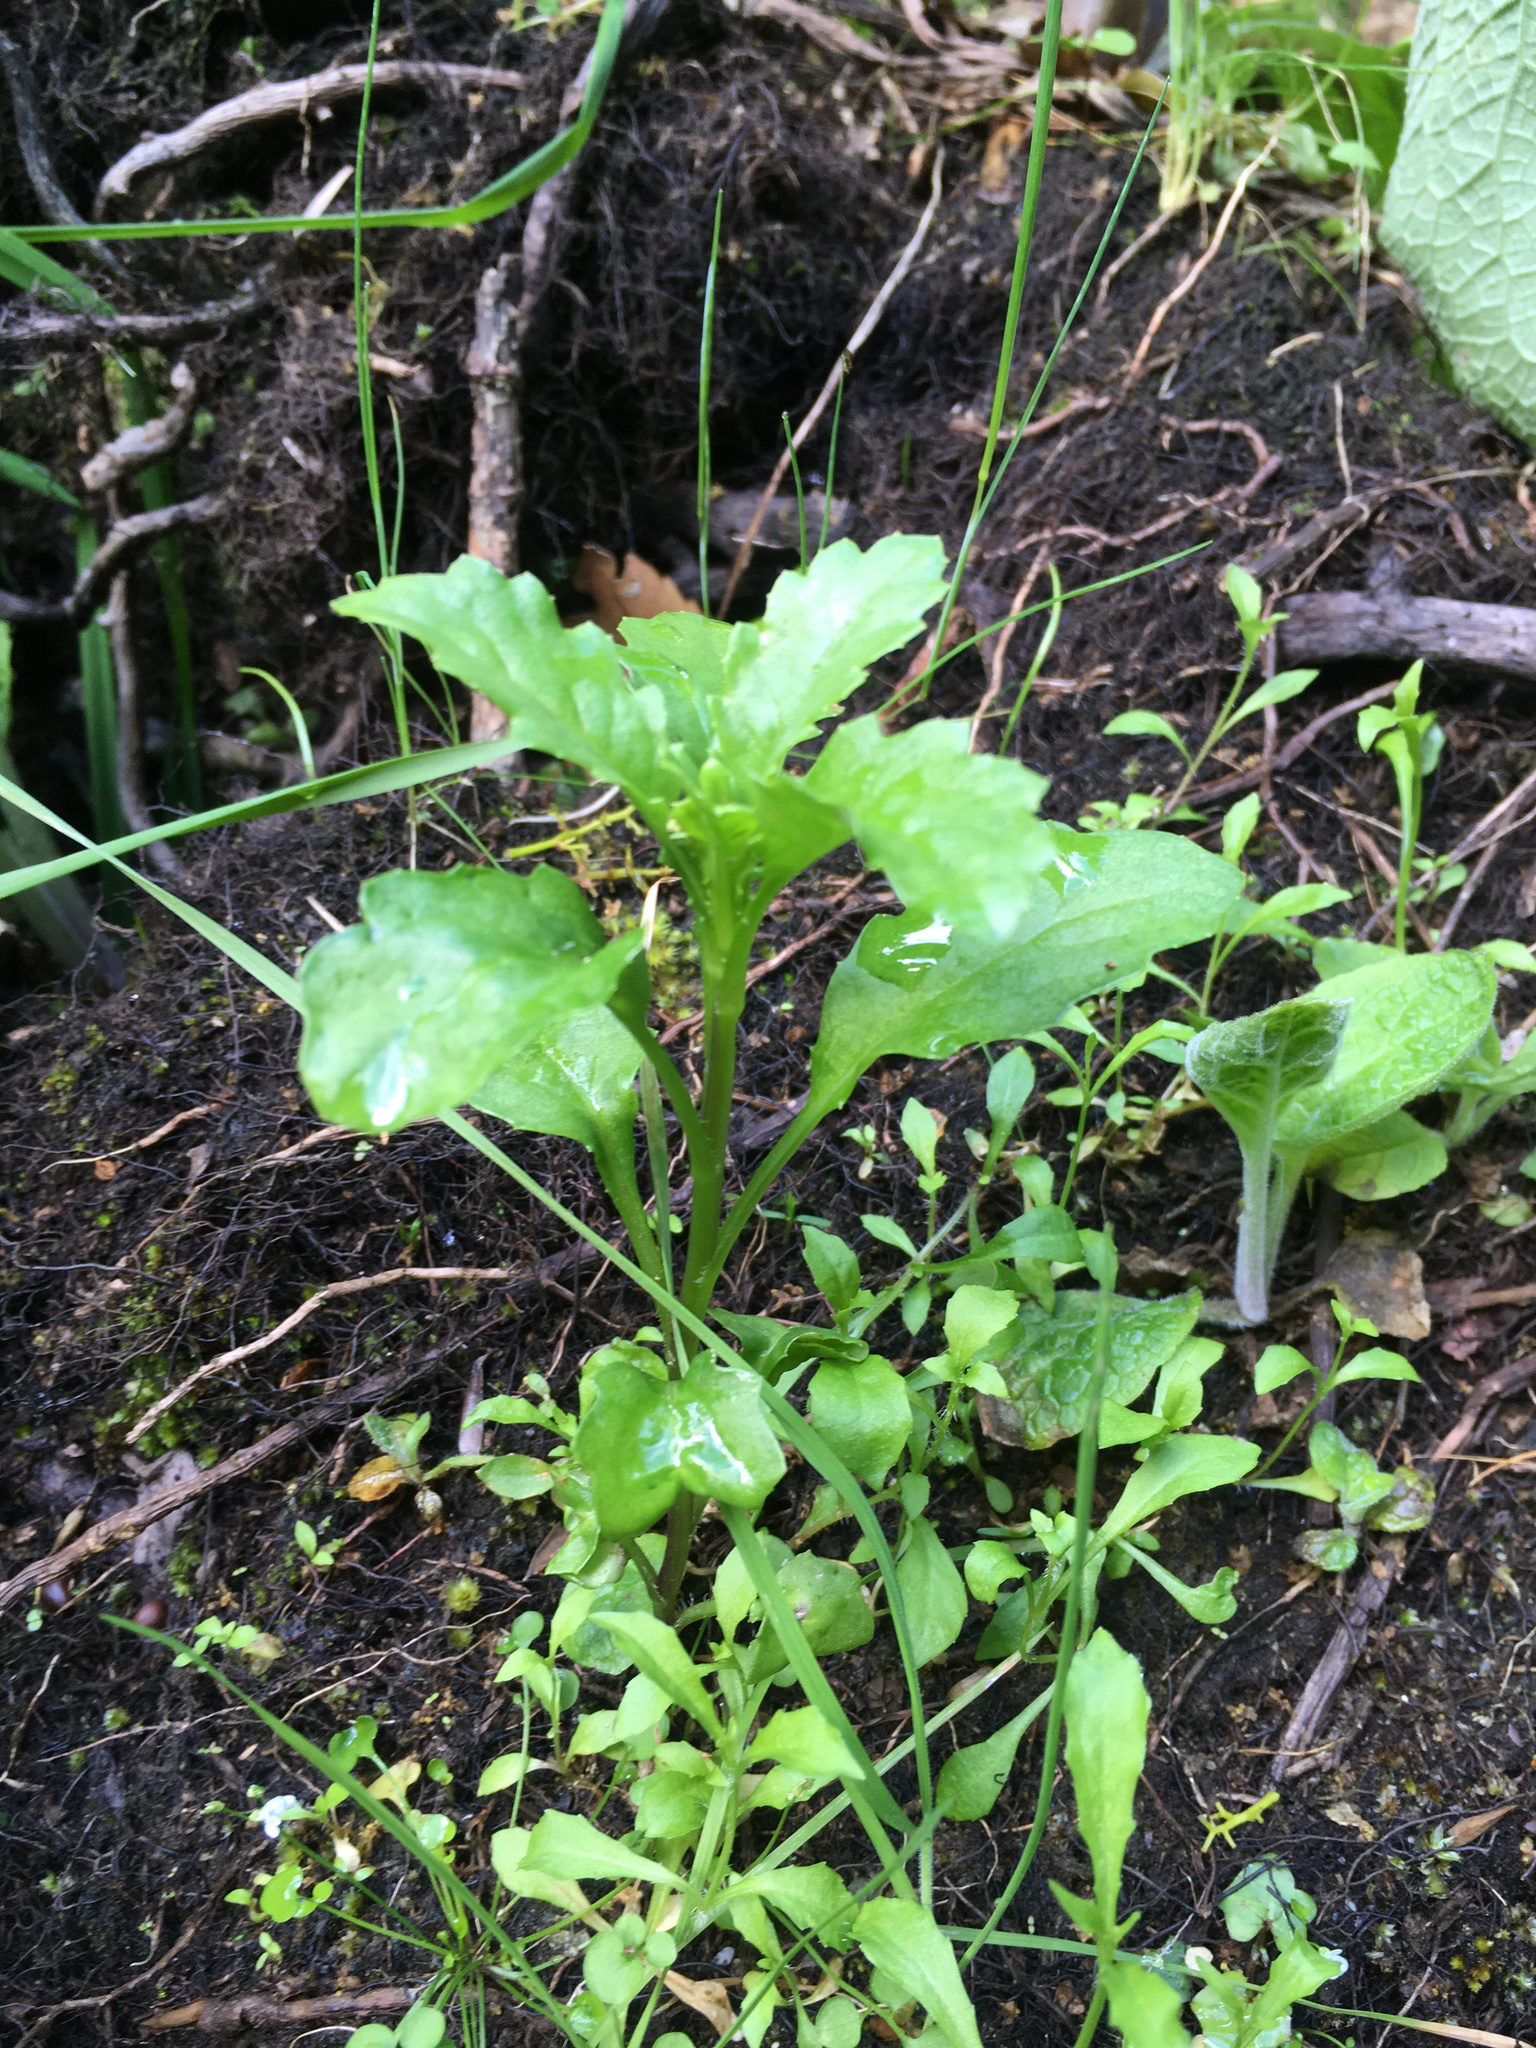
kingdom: Plantae
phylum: Tracheophyta
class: Magnoliopsida
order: Asterales
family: Asteraceae
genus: Senecio
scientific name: Senecio matatini
